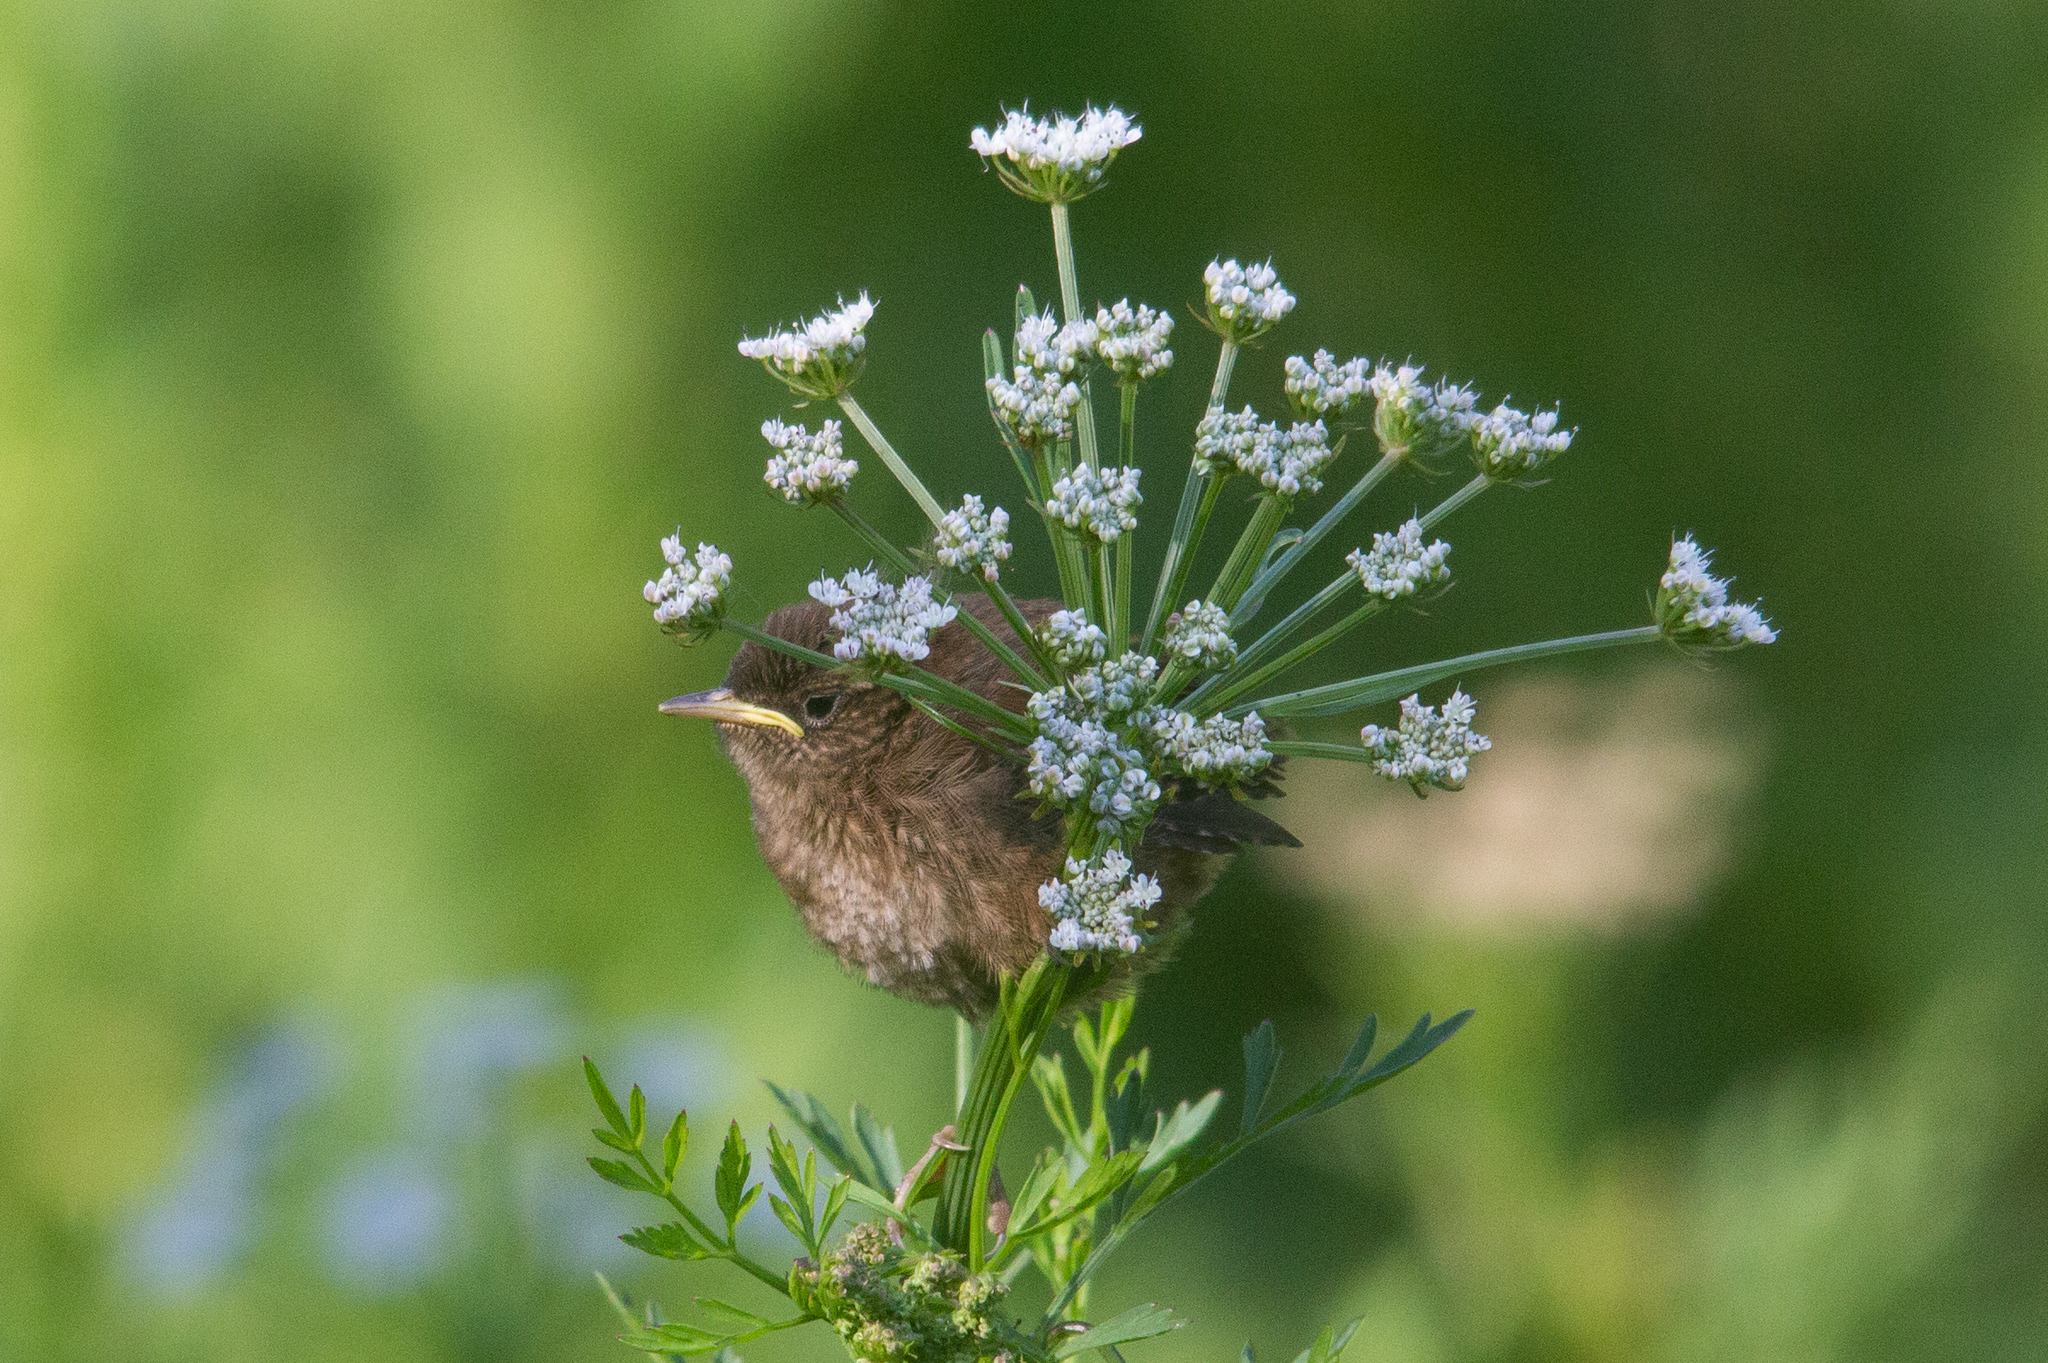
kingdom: Animalia
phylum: Chordata
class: Aves
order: Passeriformes
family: Troglodytidae
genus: Troglodytes
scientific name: Troglodytes troglodytes
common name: Eurasian wren
